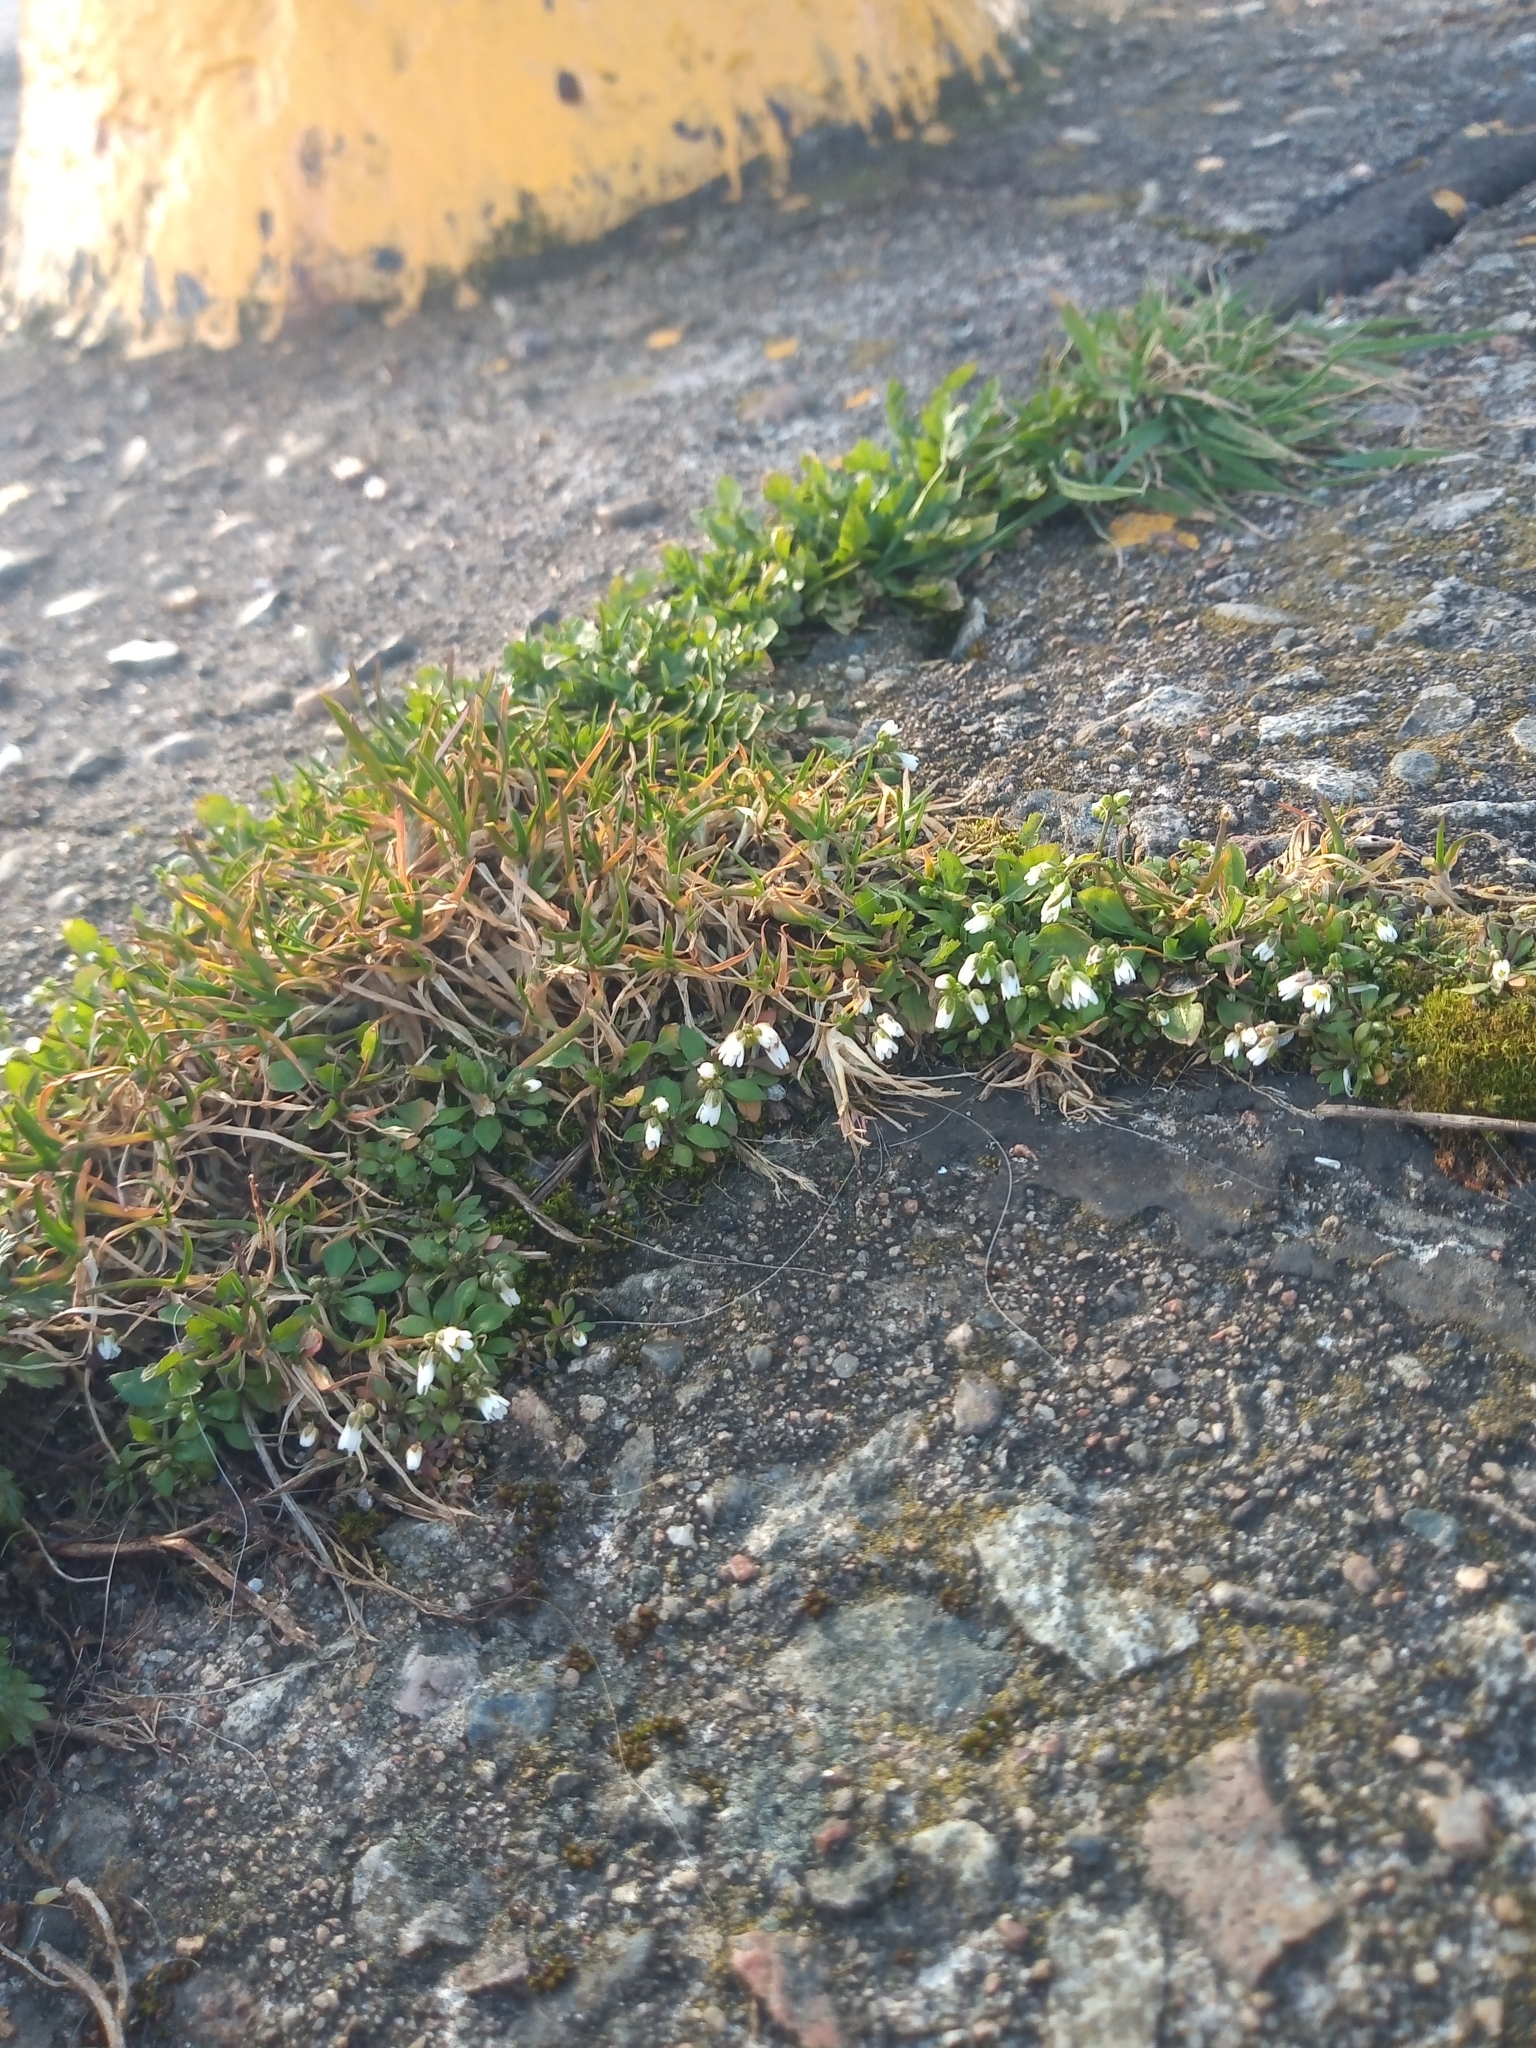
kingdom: Plantae
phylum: Tracheophyta
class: Magnoliopsida
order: Brassicales
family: Brassicaceae
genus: Draba
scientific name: Draba verna
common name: Spring draba
